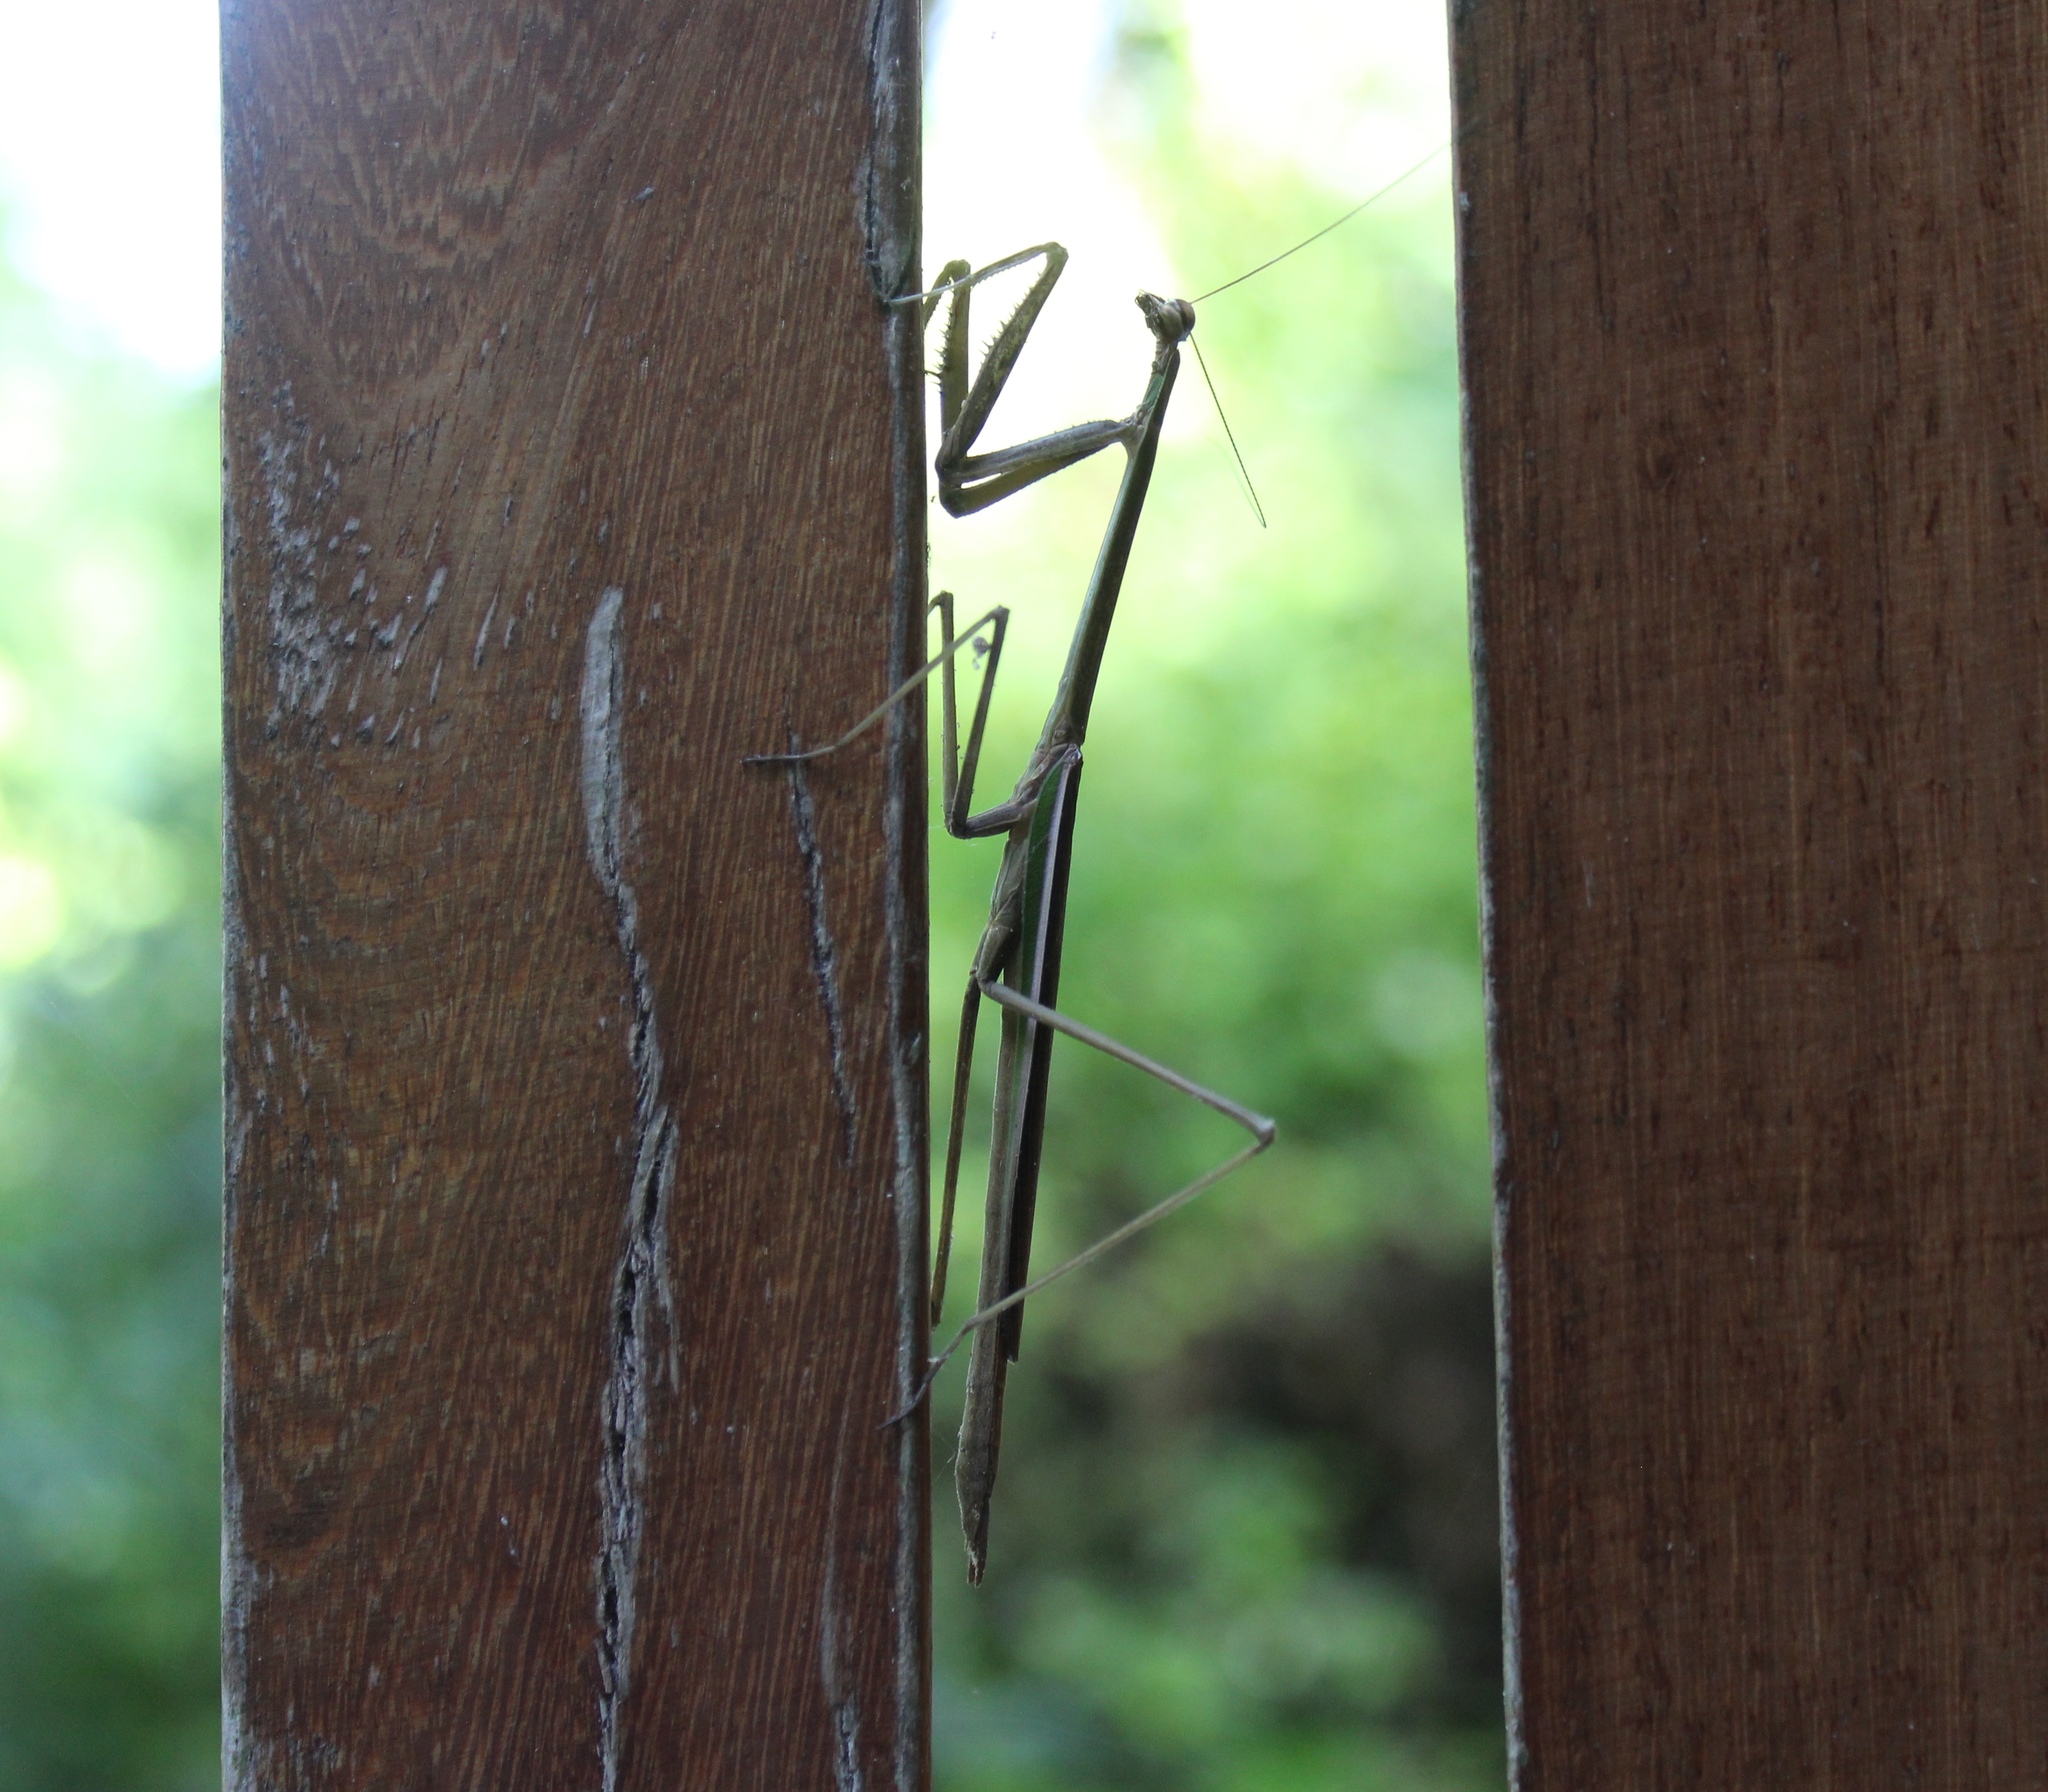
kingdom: Animalia
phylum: Arthropoda
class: Insecta
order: Mantodea
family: Mantidae
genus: Phasmomantis
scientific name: Phasmomantis sumichrasti
